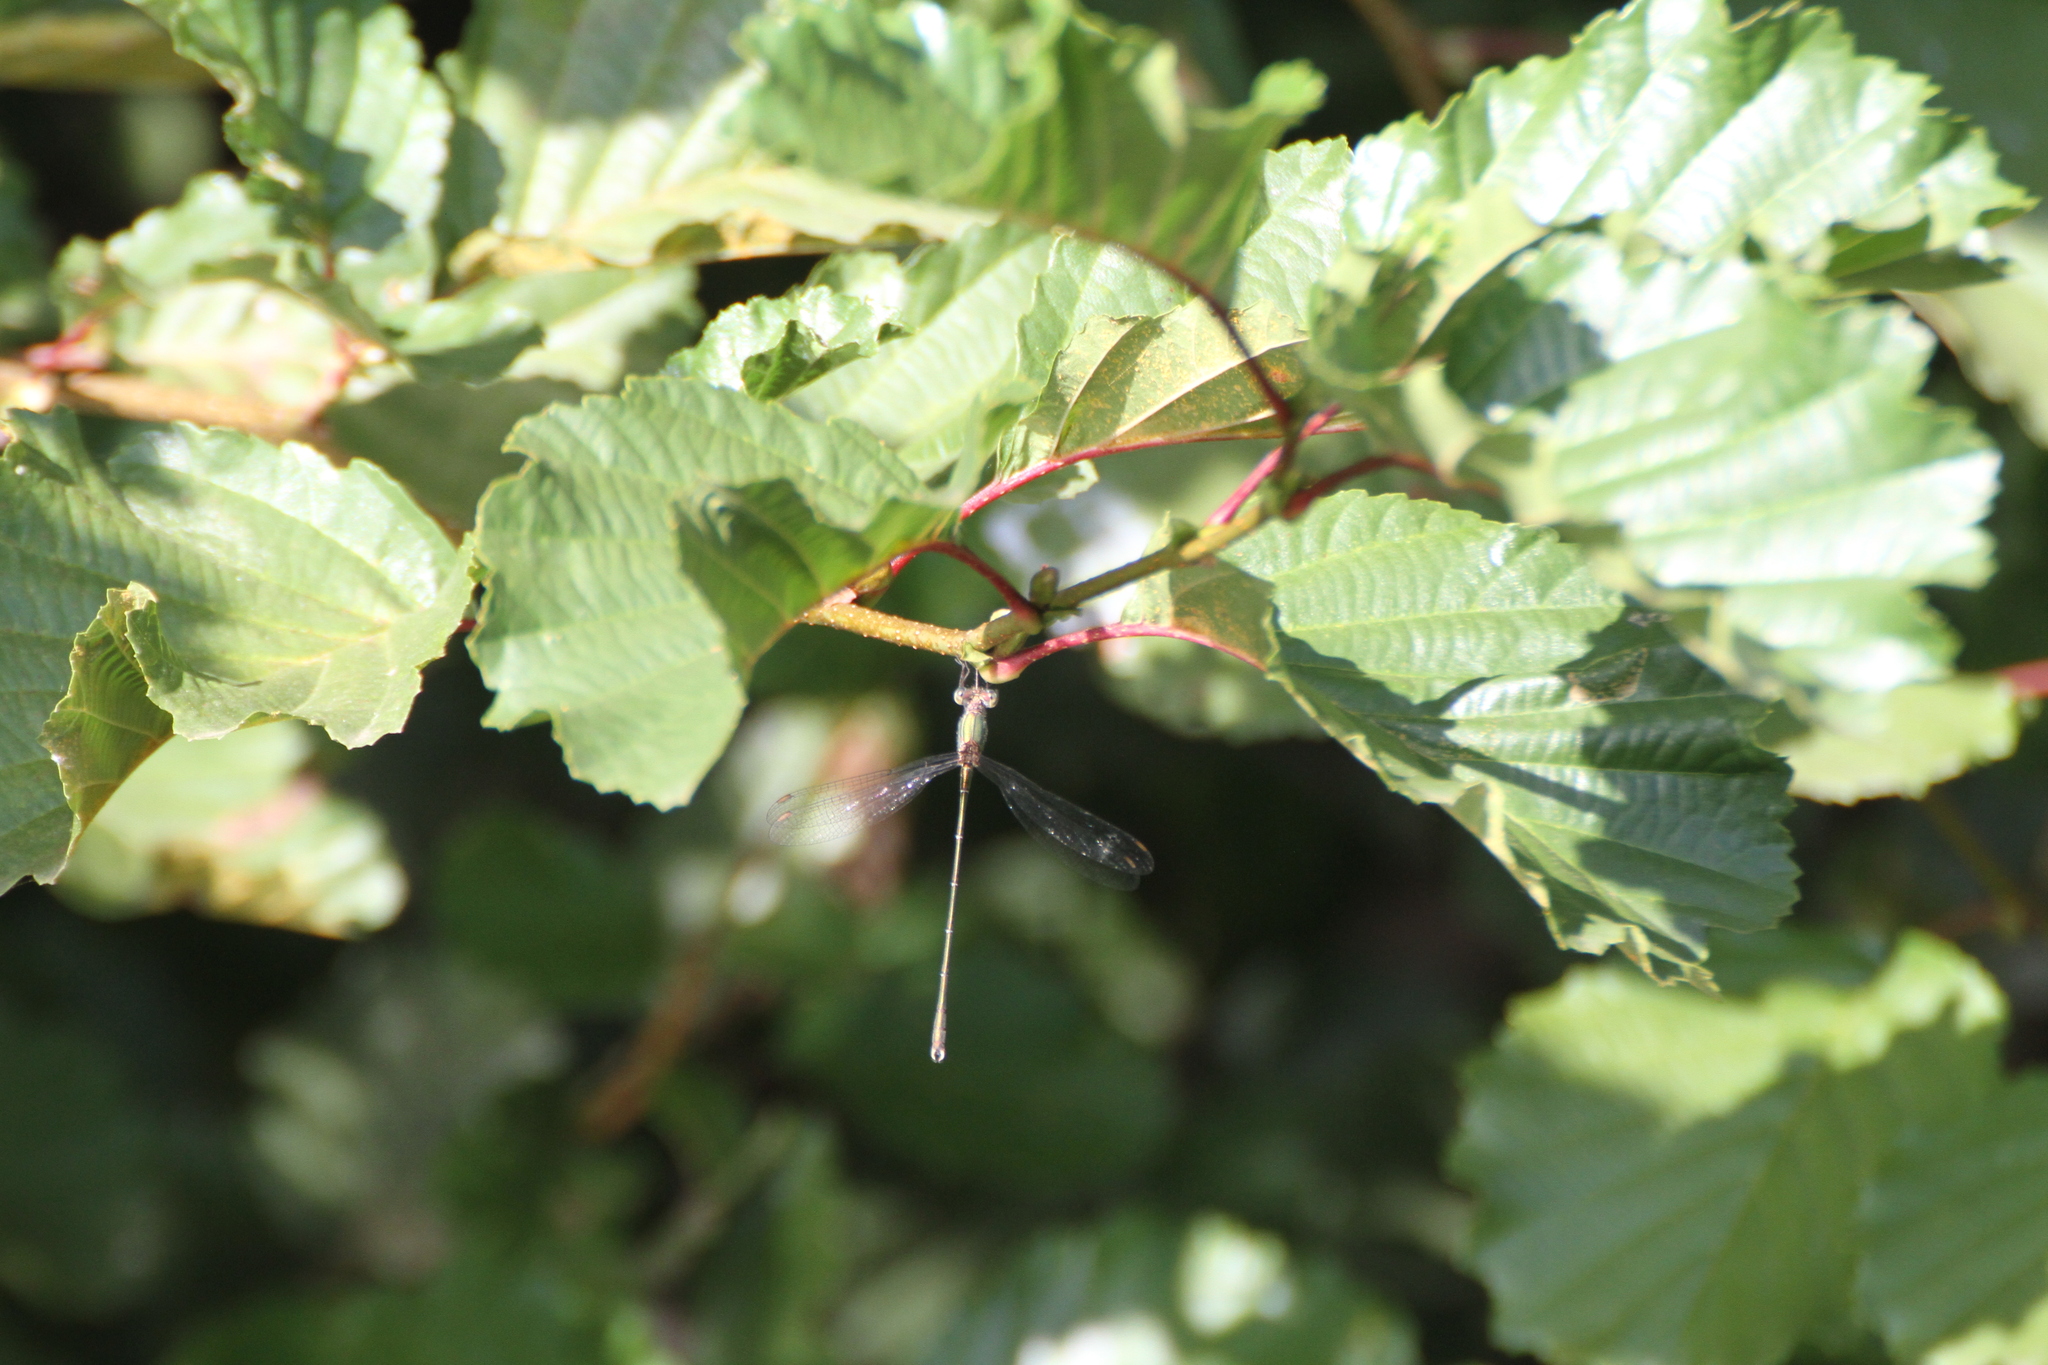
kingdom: Animalia
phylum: Arthropoda
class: Insecta
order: Odonata
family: Lestidae
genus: Chalcolestes
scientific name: Chalcolestes viridis
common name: Green emerald damselfly
